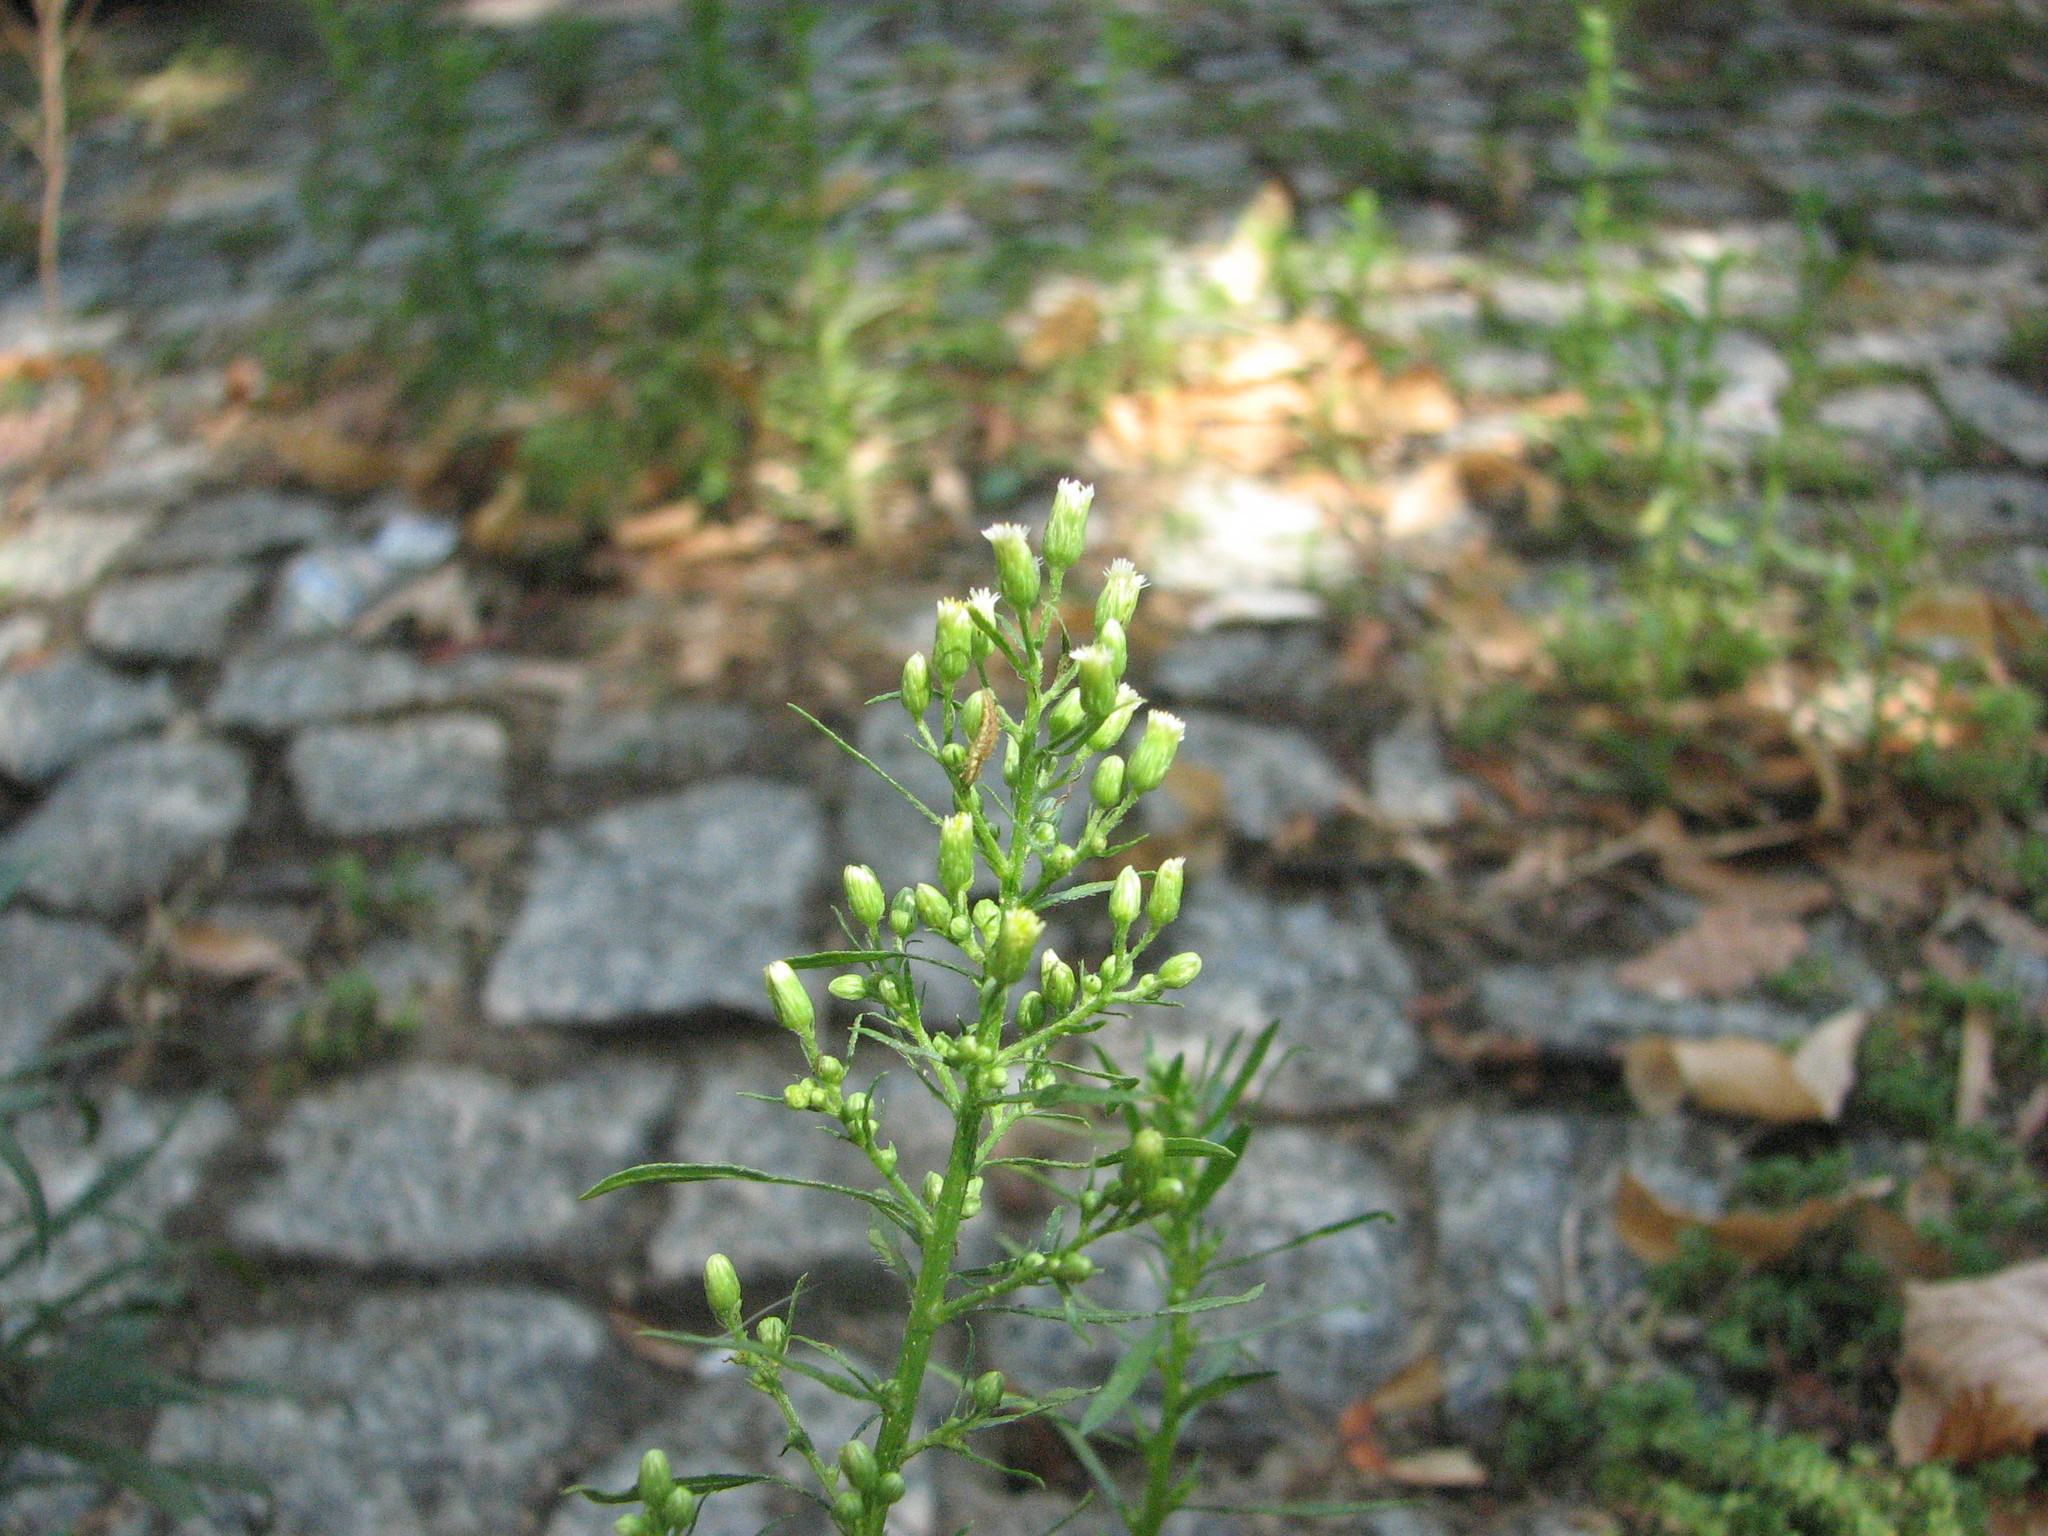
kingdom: Plantae
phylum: Tracheophyta
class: Magnoliopsida
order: Asterales
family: Asteraceae
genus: Erigeron
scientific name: Erigeron canadensis
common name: Canadian fleabane
